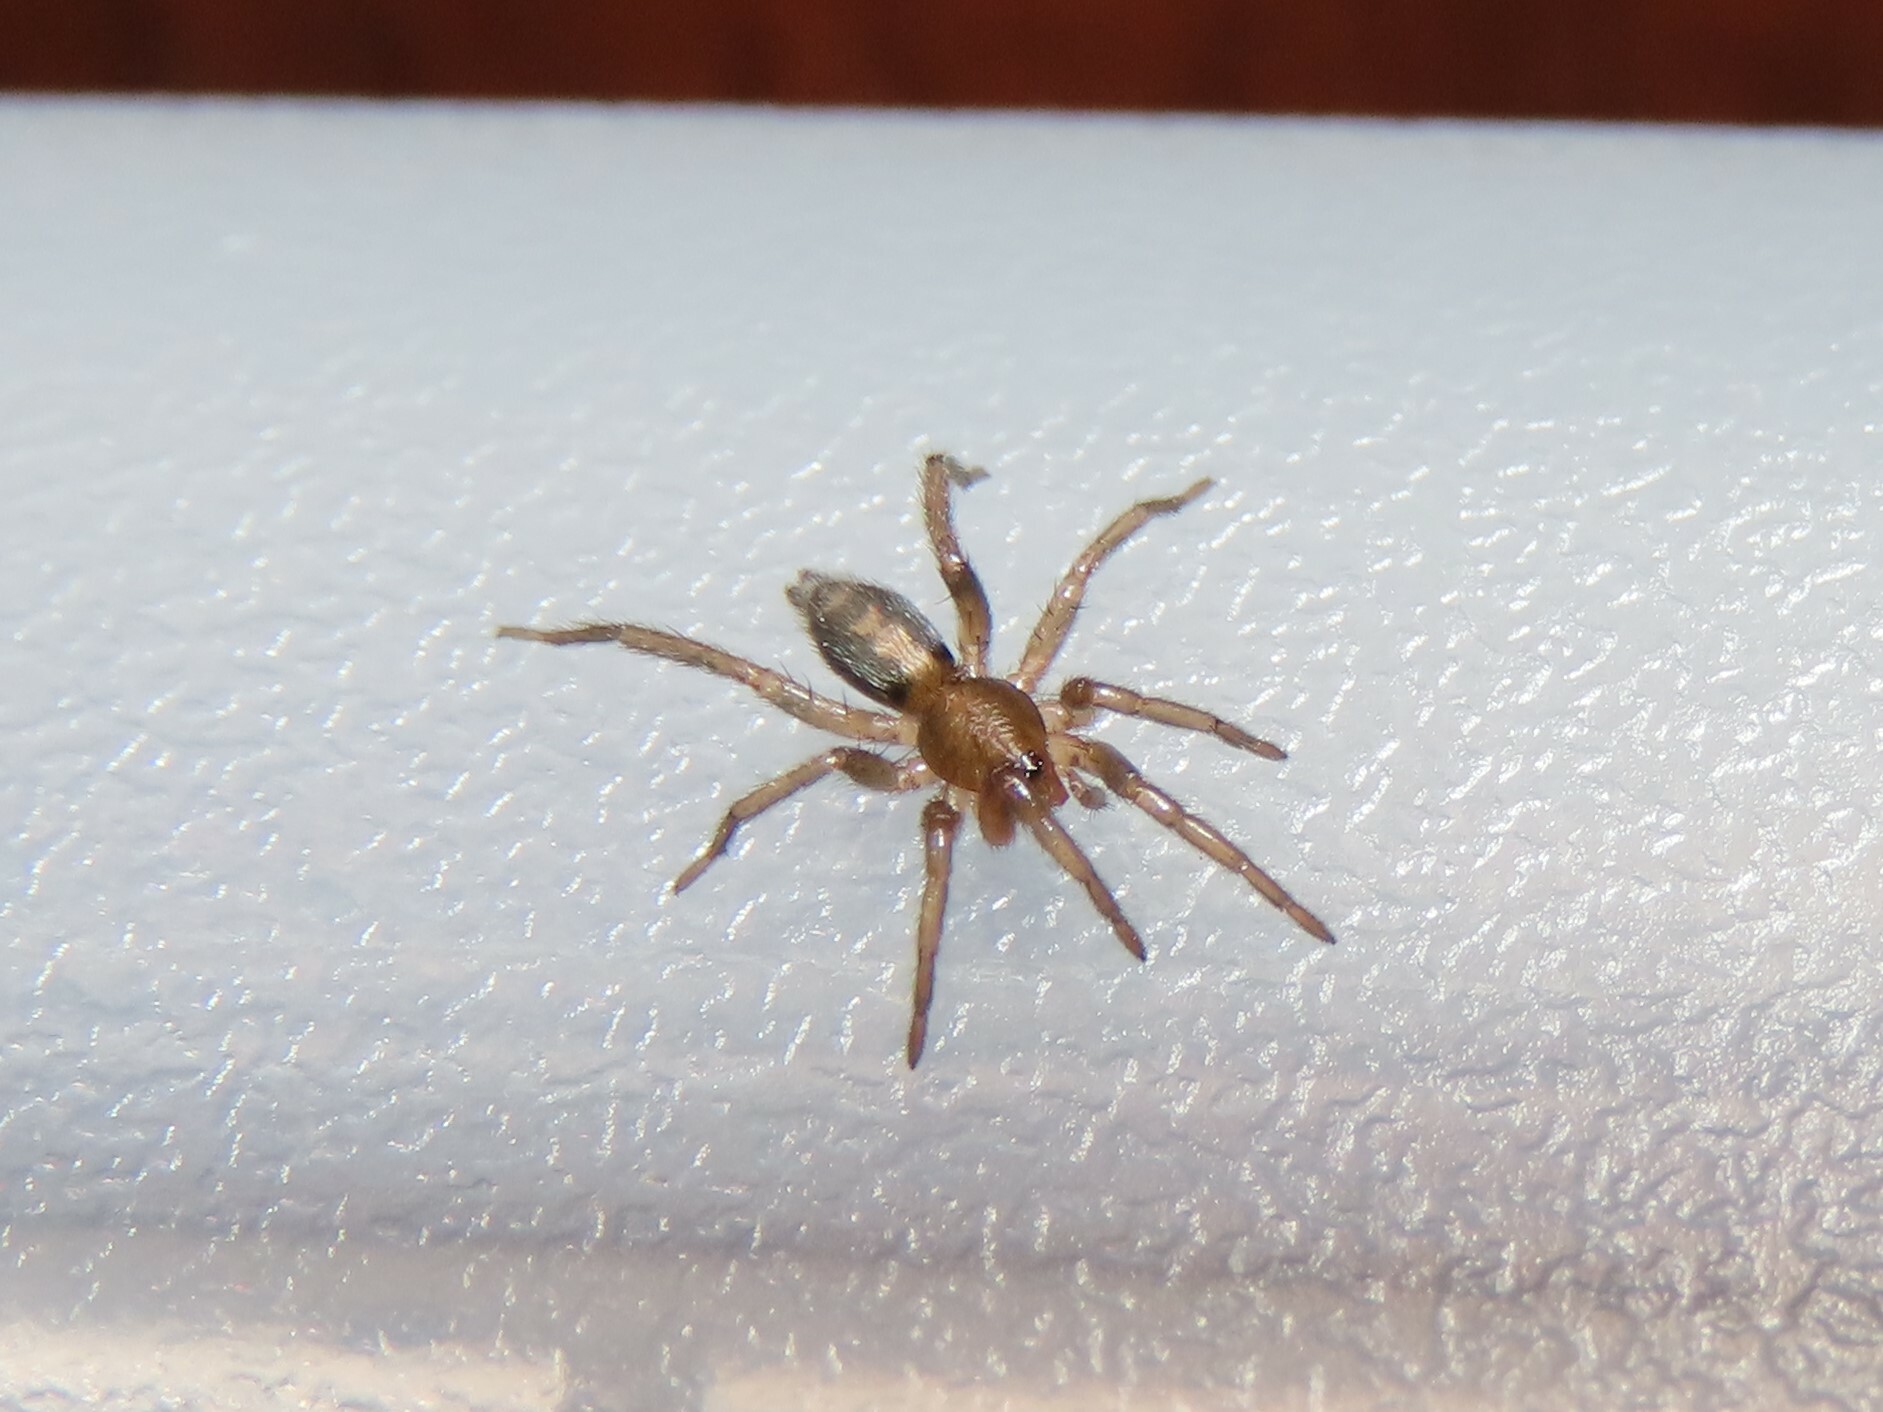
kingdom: Animalia
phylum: Arthropoda
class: Arachnida
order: Araneae
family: Gnaphosidae
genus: Herpyllus
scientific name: Herpyllus ecclesiasticus
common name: Eastern parson spider
